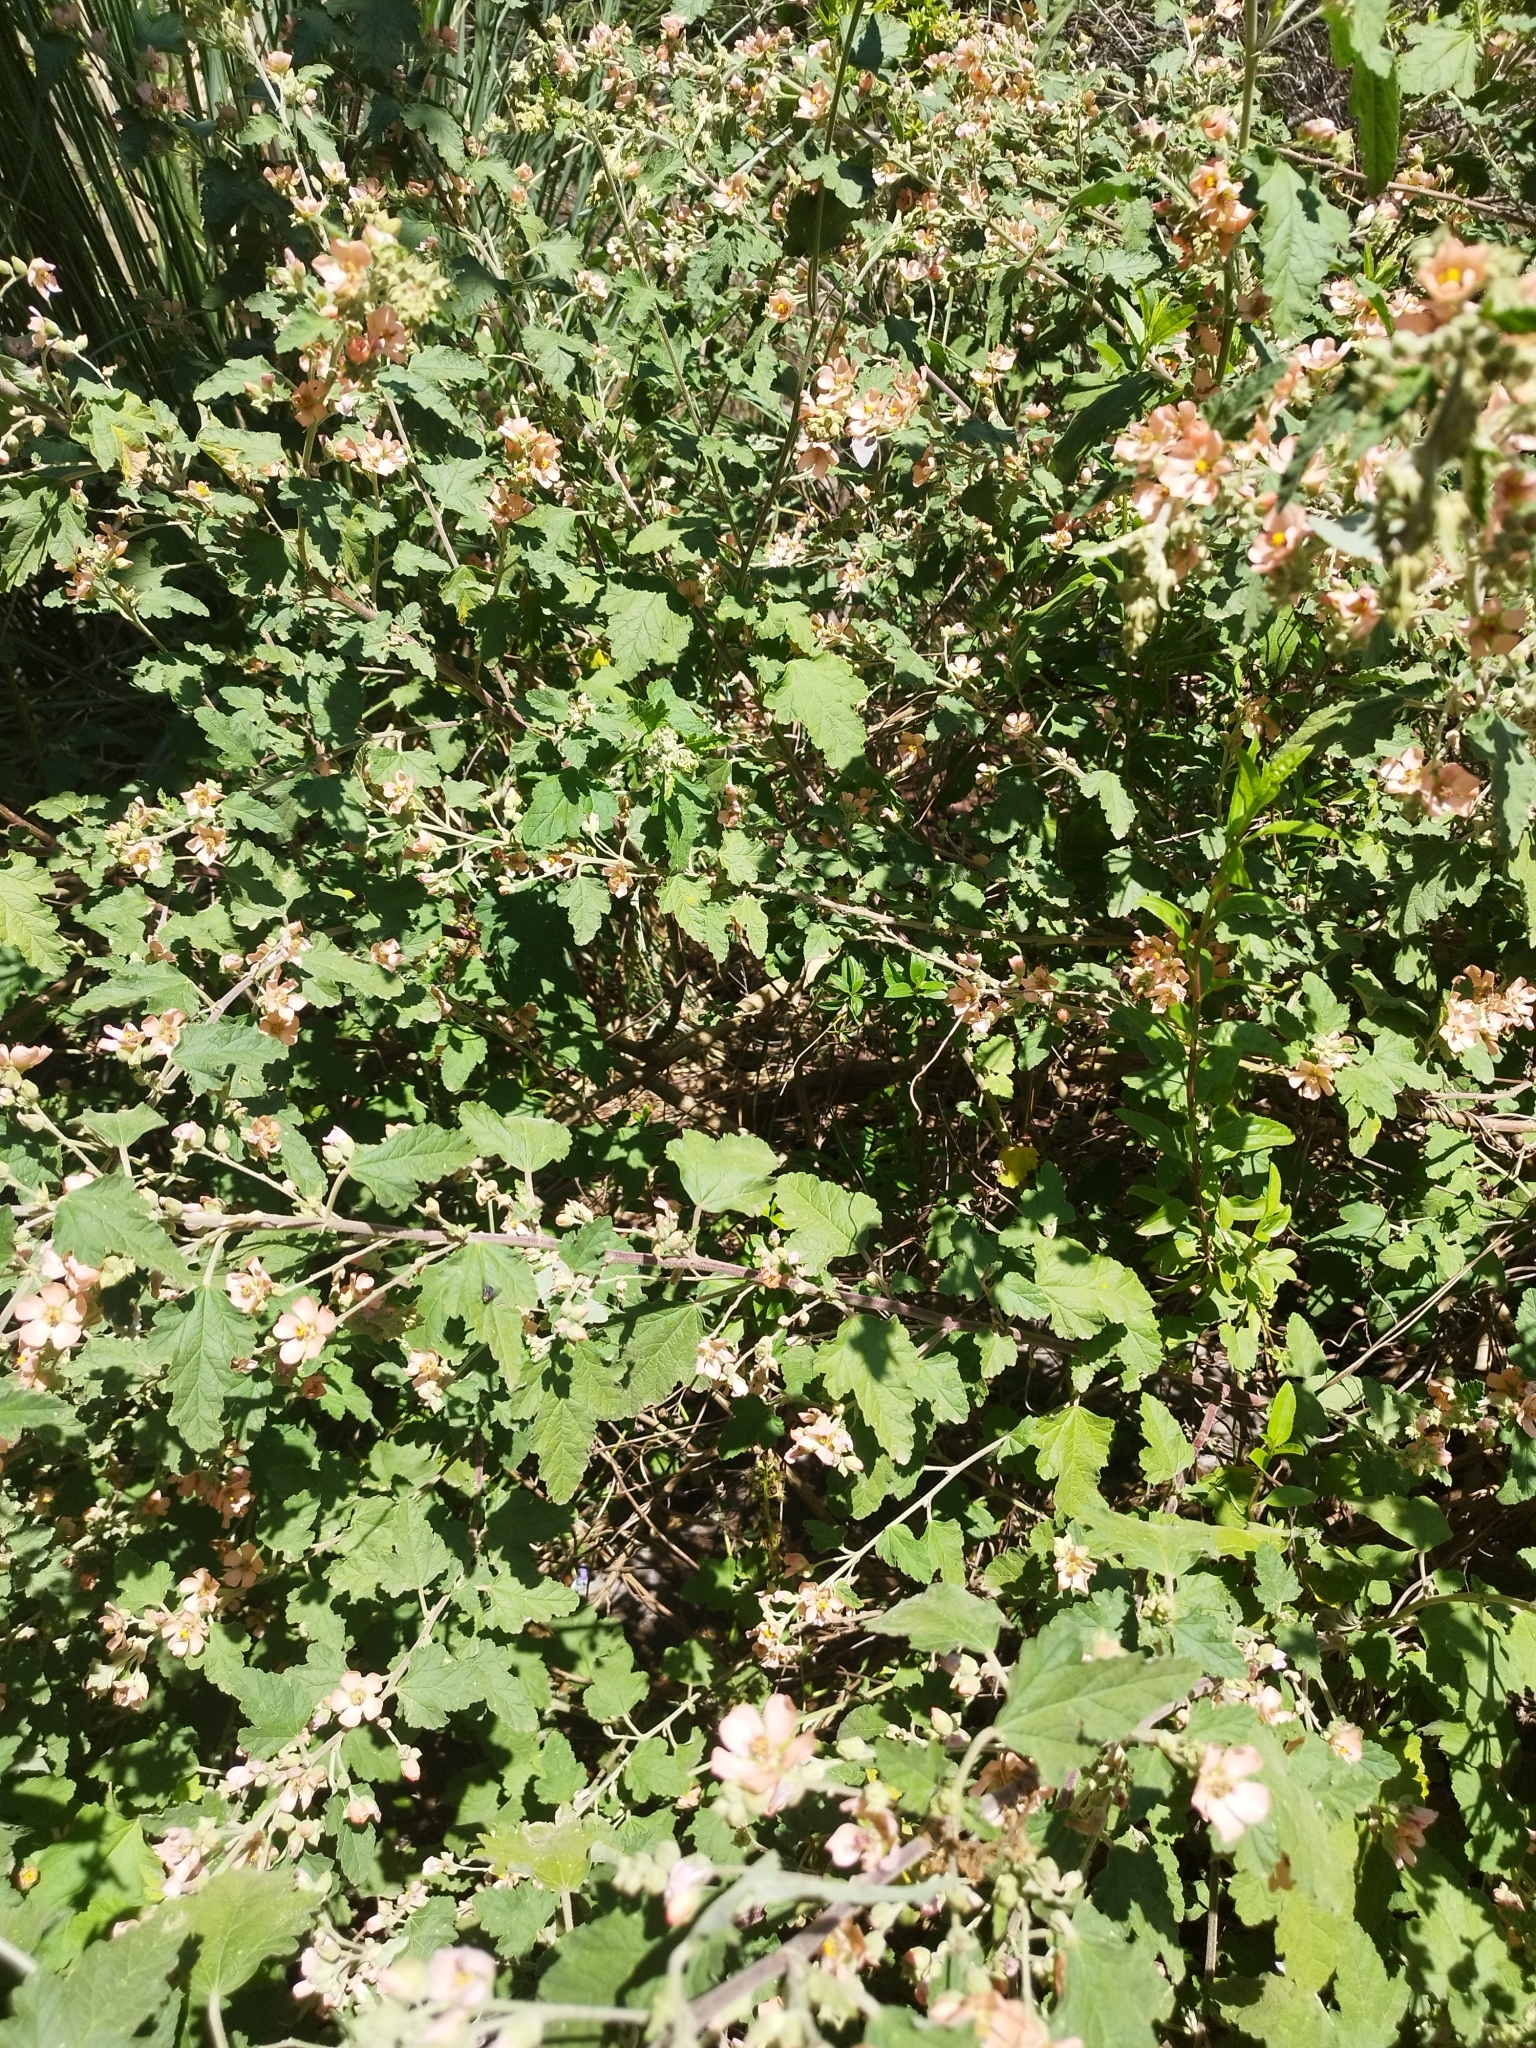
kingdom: Plantae
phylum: Tracheophyta
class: Magnoliopsida
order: Malvales
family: Malvaceae
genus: Sphaeralcea
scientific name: Sphaeralcea bonariensis
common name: Latin globemallow
